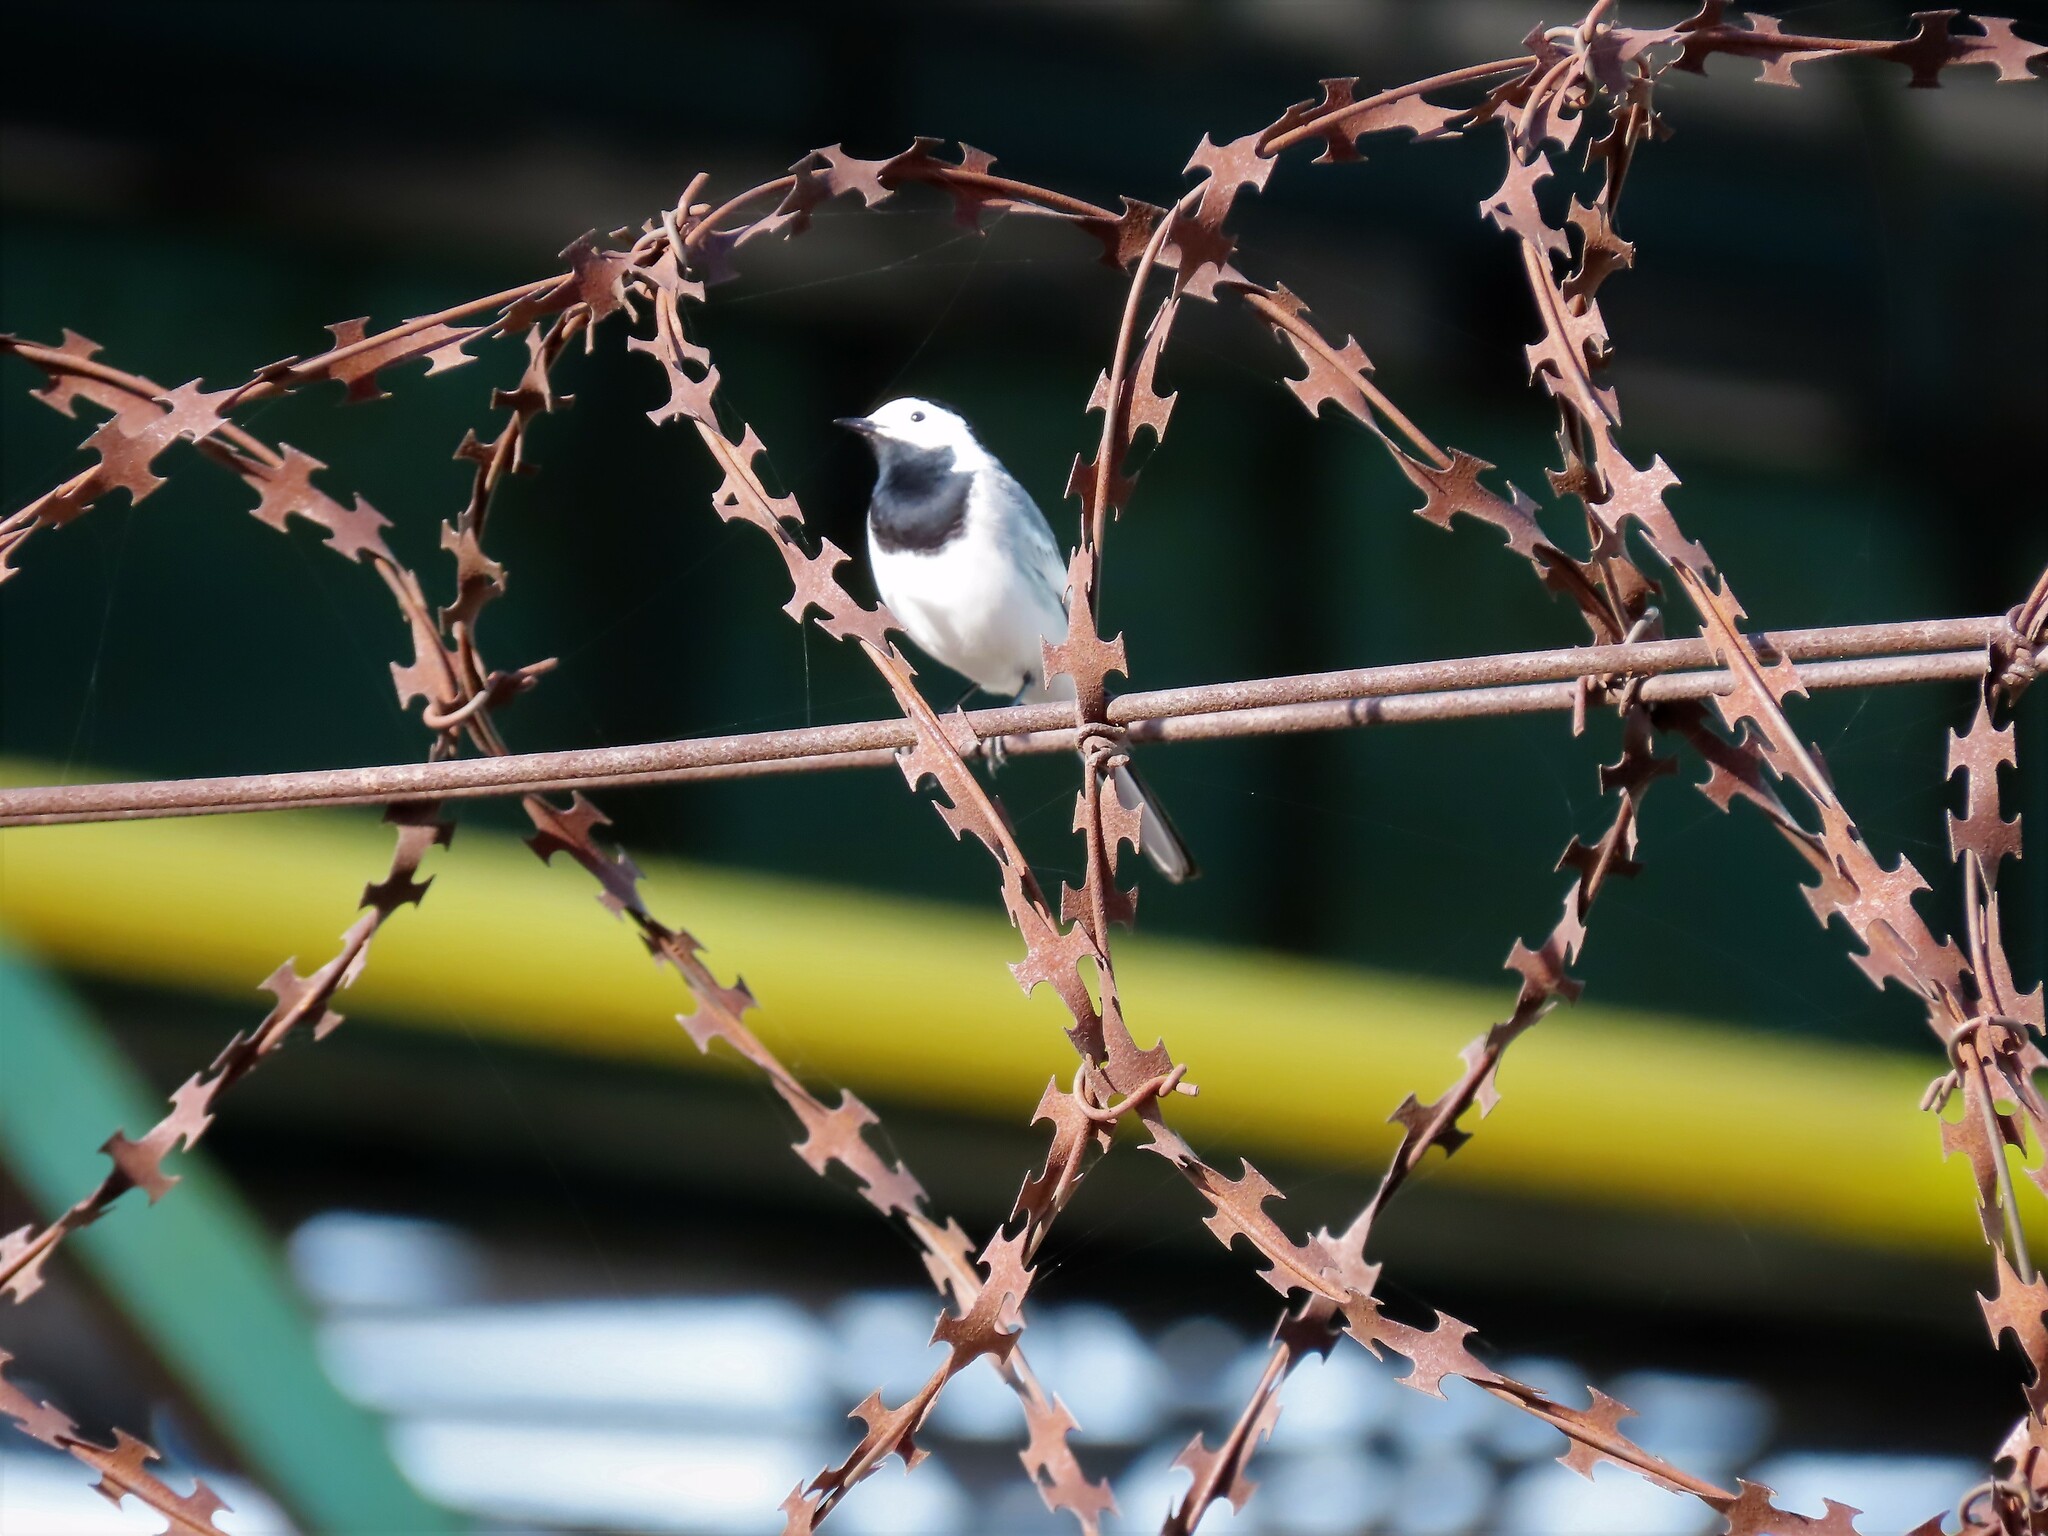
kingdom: Animalia
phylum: Chordata
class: Aves
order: Passeriformes
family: Motacillidae
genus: Motacilla
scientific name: Motacilla alba
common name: White wagtail
